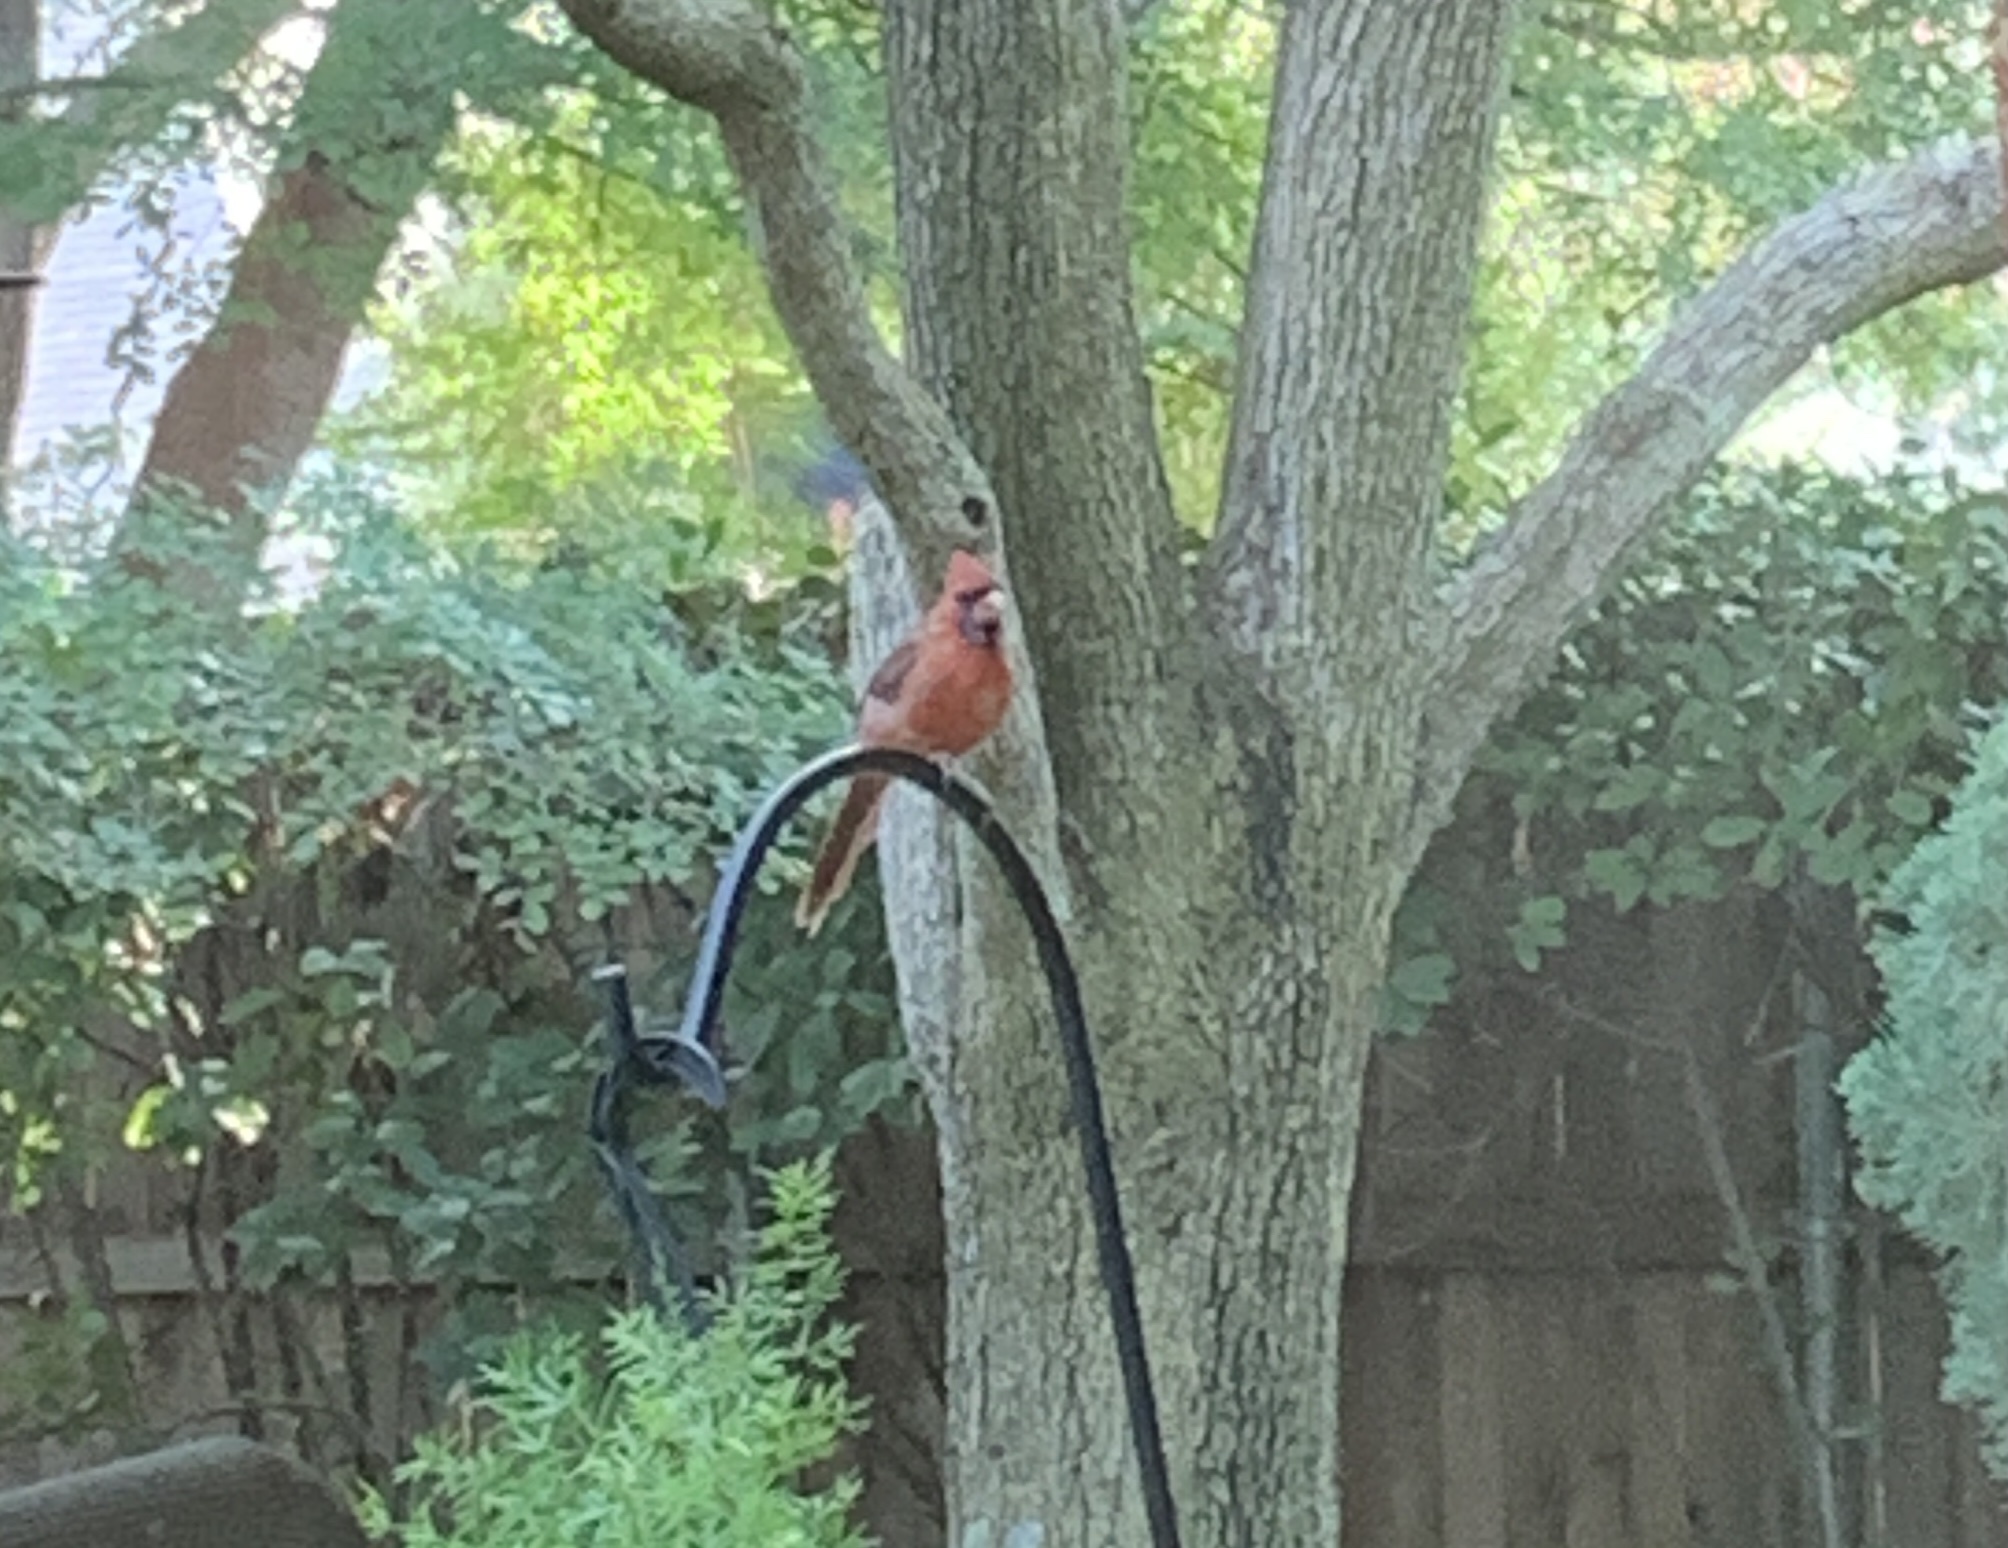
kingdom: Animalia
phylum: Chordata
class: Aves
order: Passeriformes
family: Cardinalidae
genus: Cardinalis
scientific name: Cardinalis cardinalis
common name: Northern cardinal
